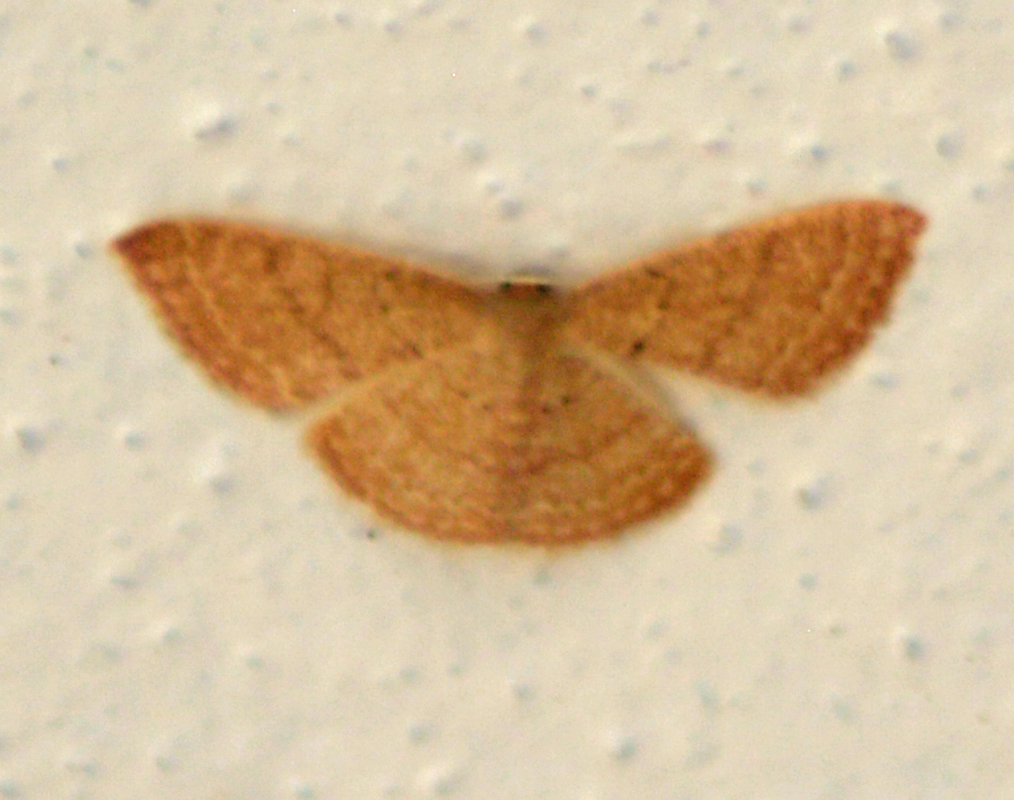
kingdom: Animalia
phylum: Arthropoda
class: Insecta
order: Lepidoptera
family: Geometridae
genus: Pleuroprucha
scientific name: Pleuroprucha insulsaria
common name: Common tan wave
